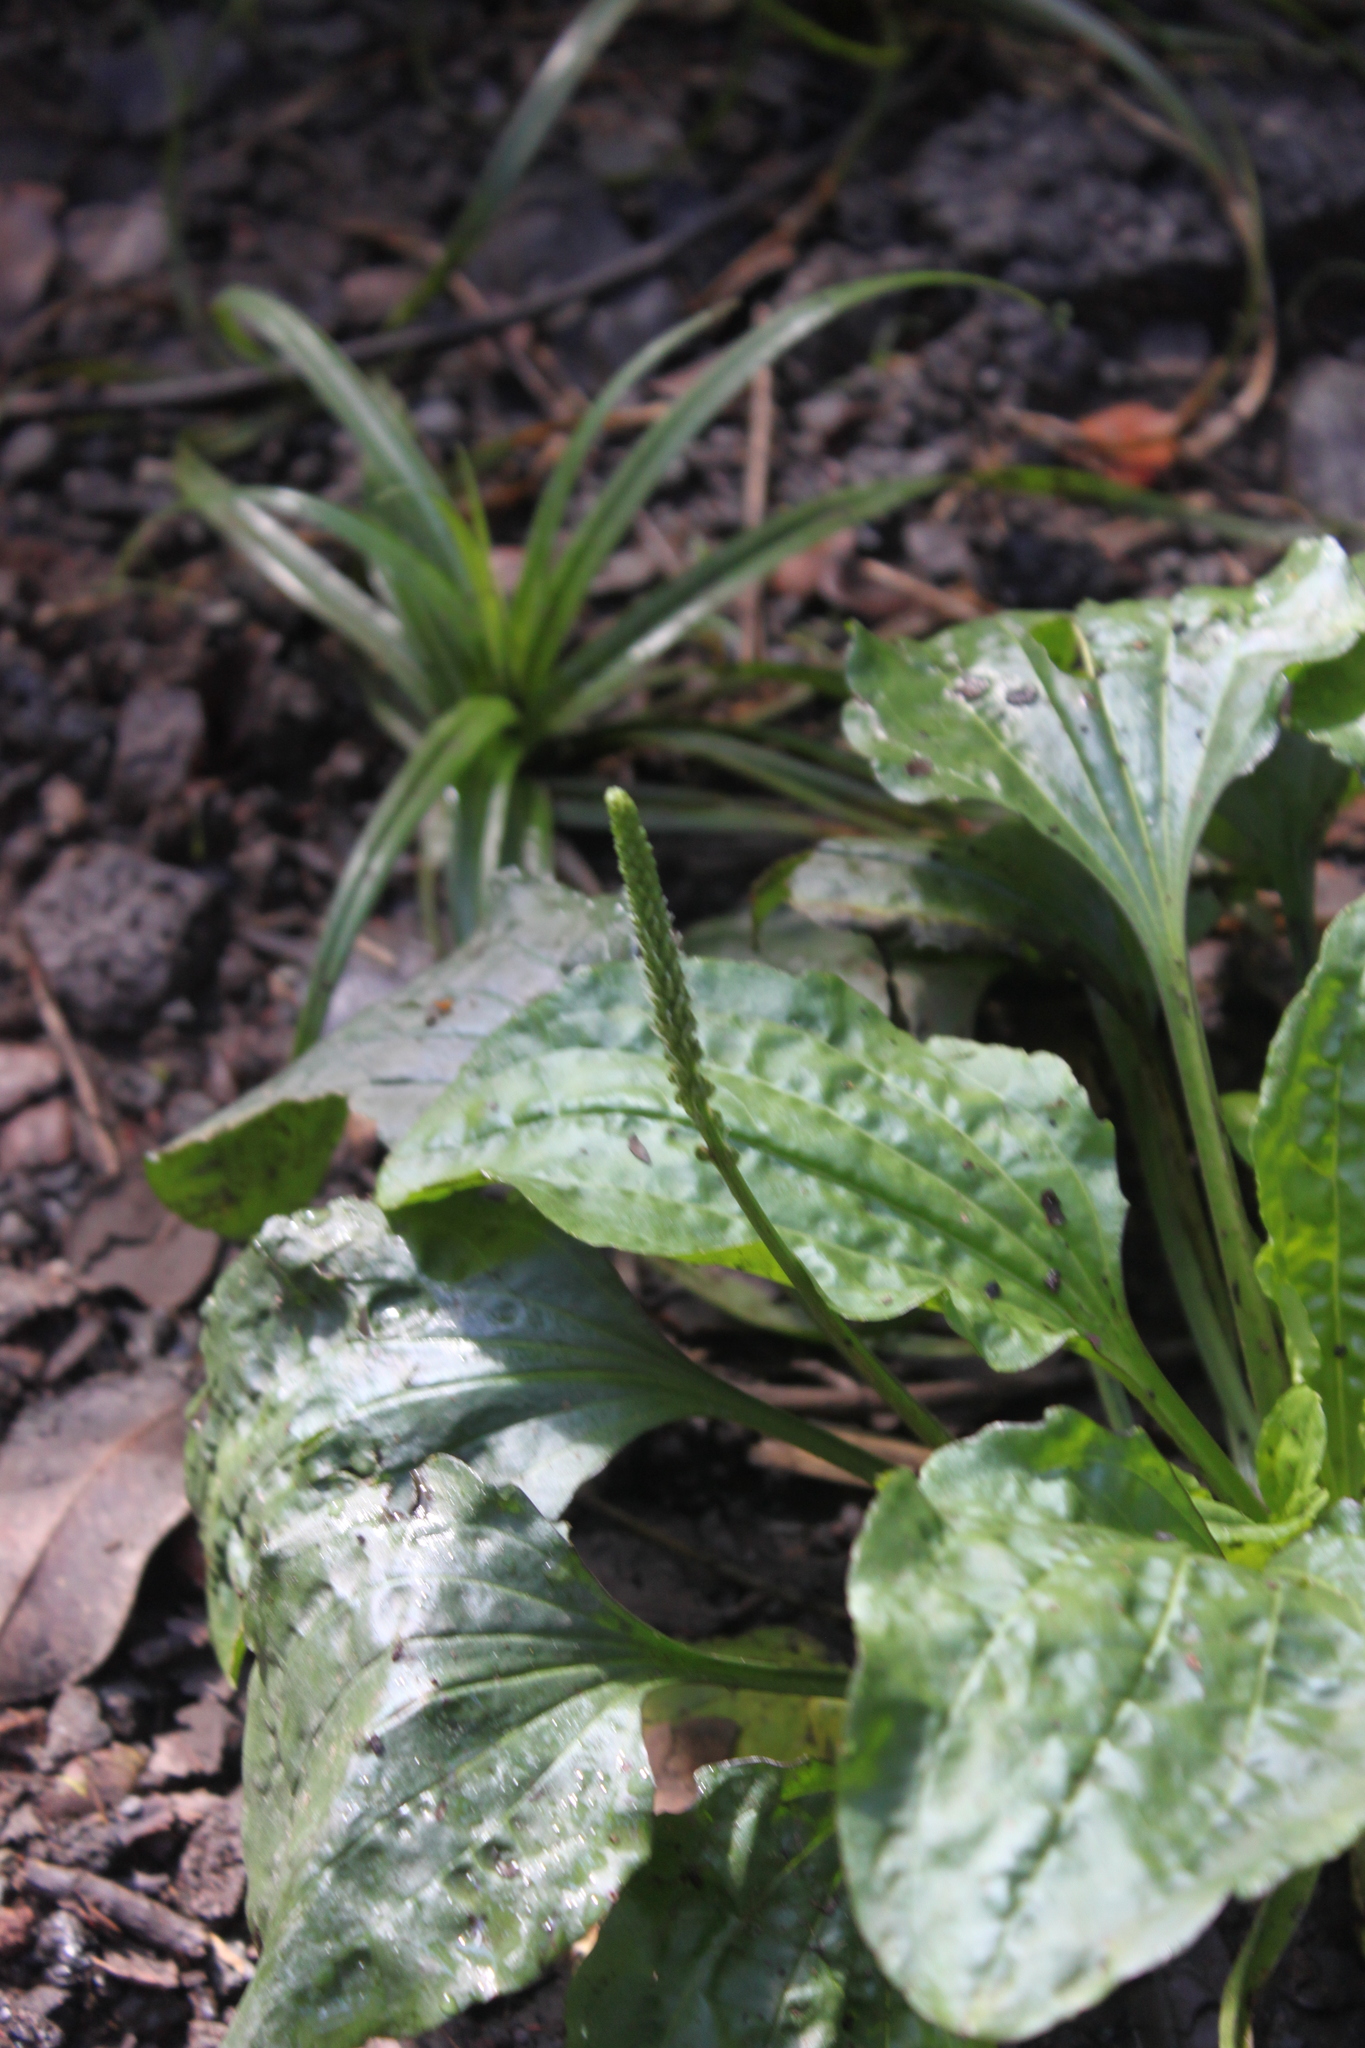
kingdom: Plantae
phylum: Tracheophyta
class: Magnoliopsida
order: Lamiales
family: Plantaginaceae
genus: Plantago
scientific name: Plantago major
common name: Common plantain
